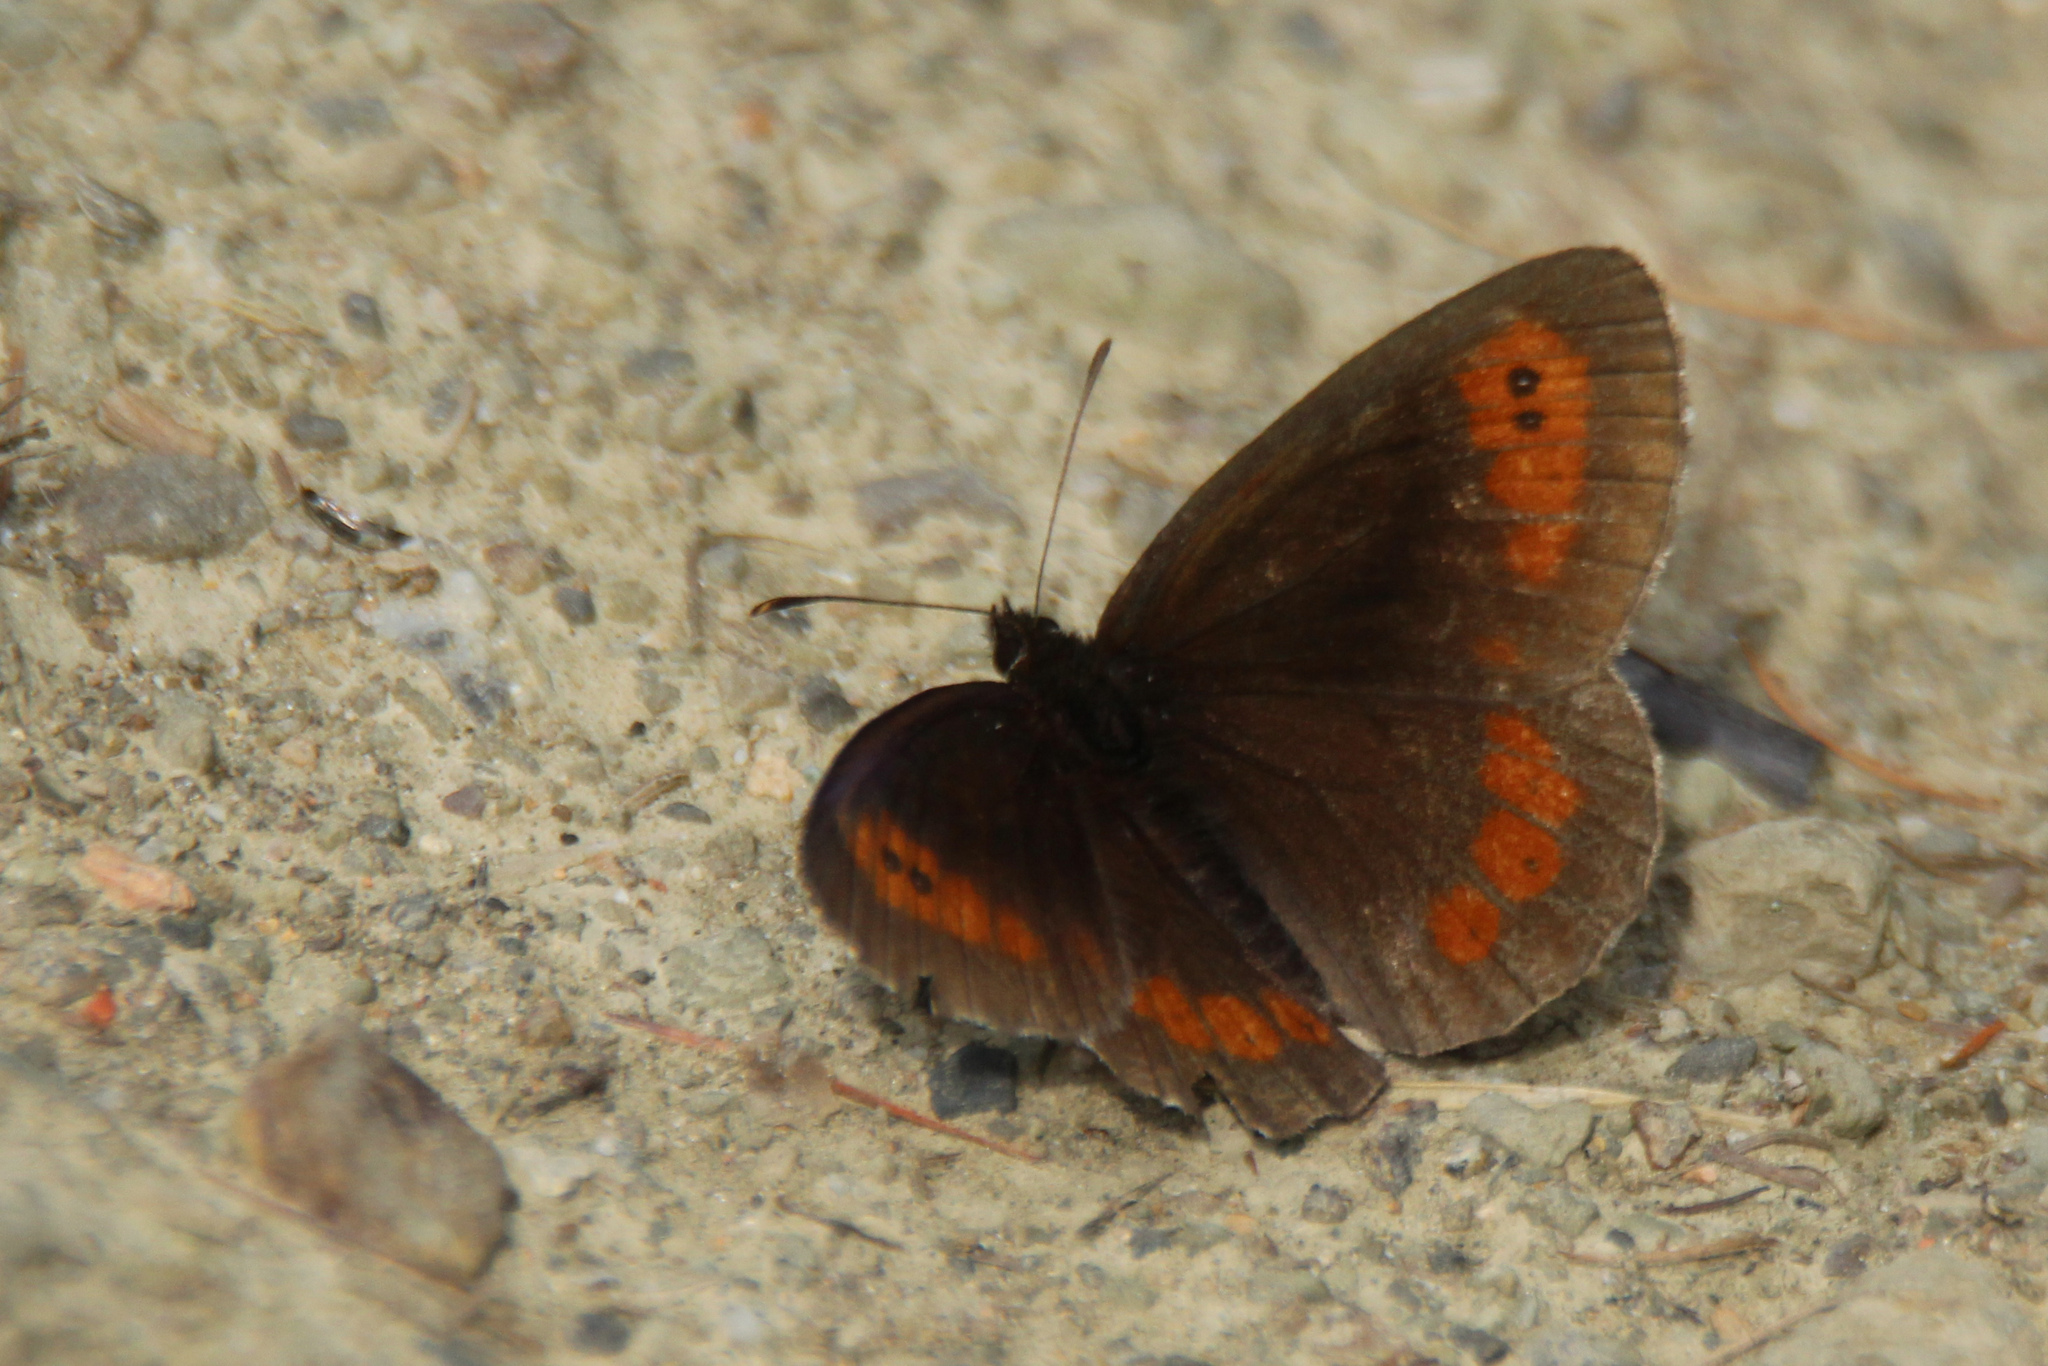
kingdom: Animalia
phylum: Arthropoda
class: Insecta
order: Lepidoptera
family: Nymphalidae
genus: Erebia
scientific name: Erebia aethiops
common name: Scotch argus
